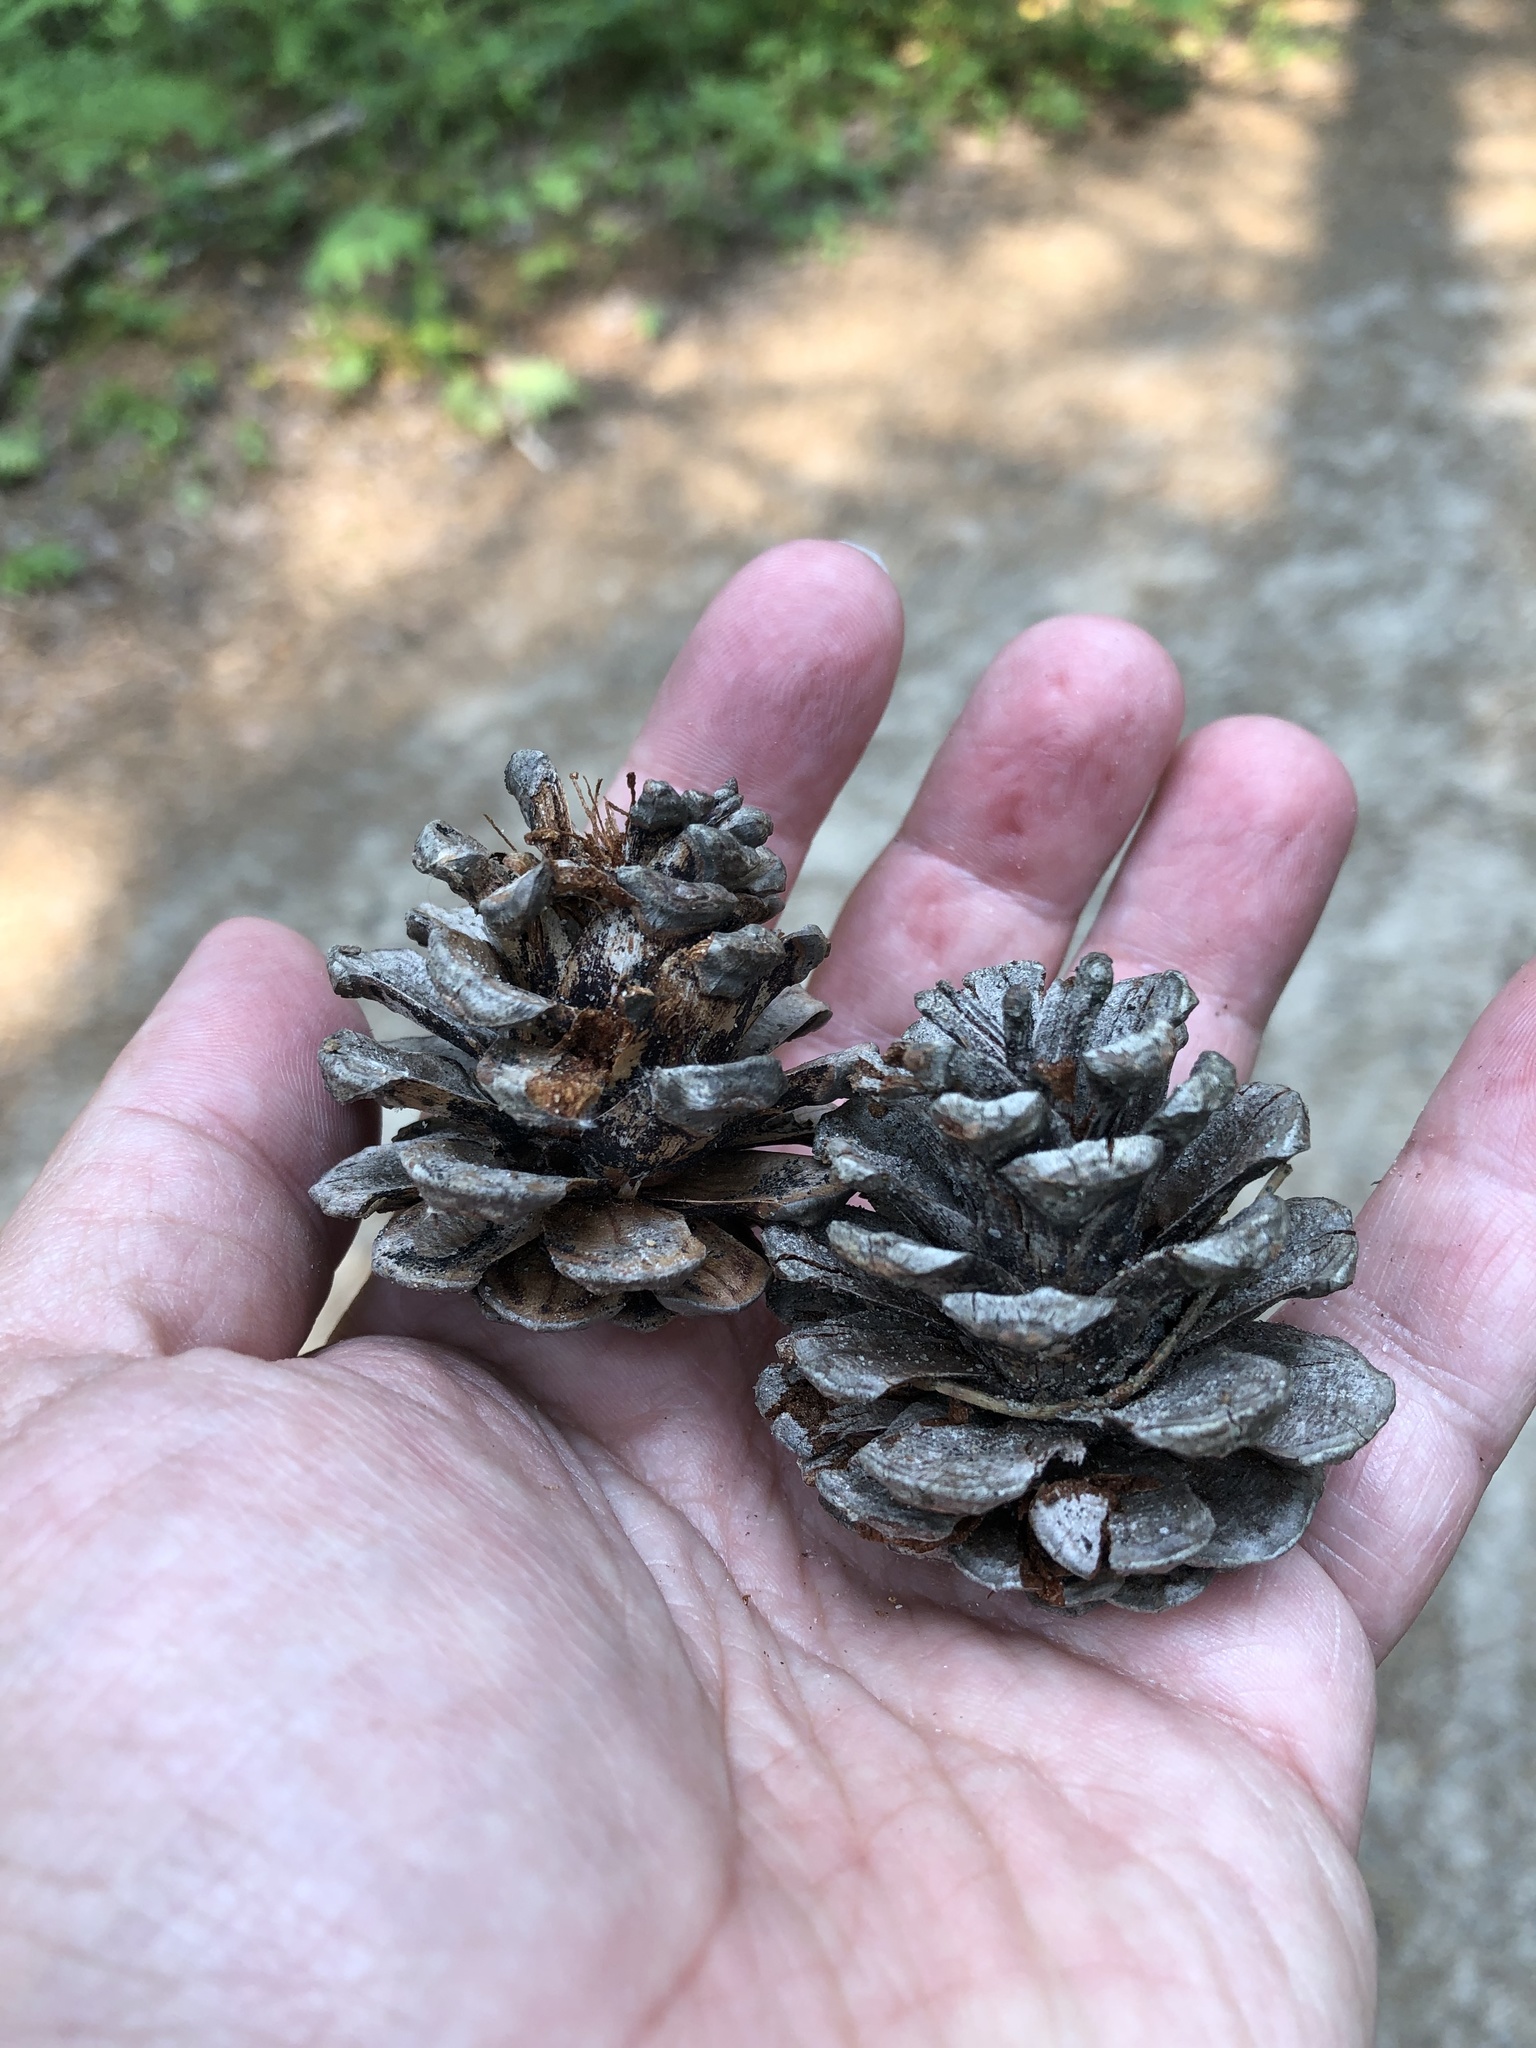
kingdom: Plantae
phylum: Tracheophyta
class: Pinopsida
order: Pinales
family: Pinaceae
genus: Pinus
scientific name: Pinus resinosa
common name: Norway pine
